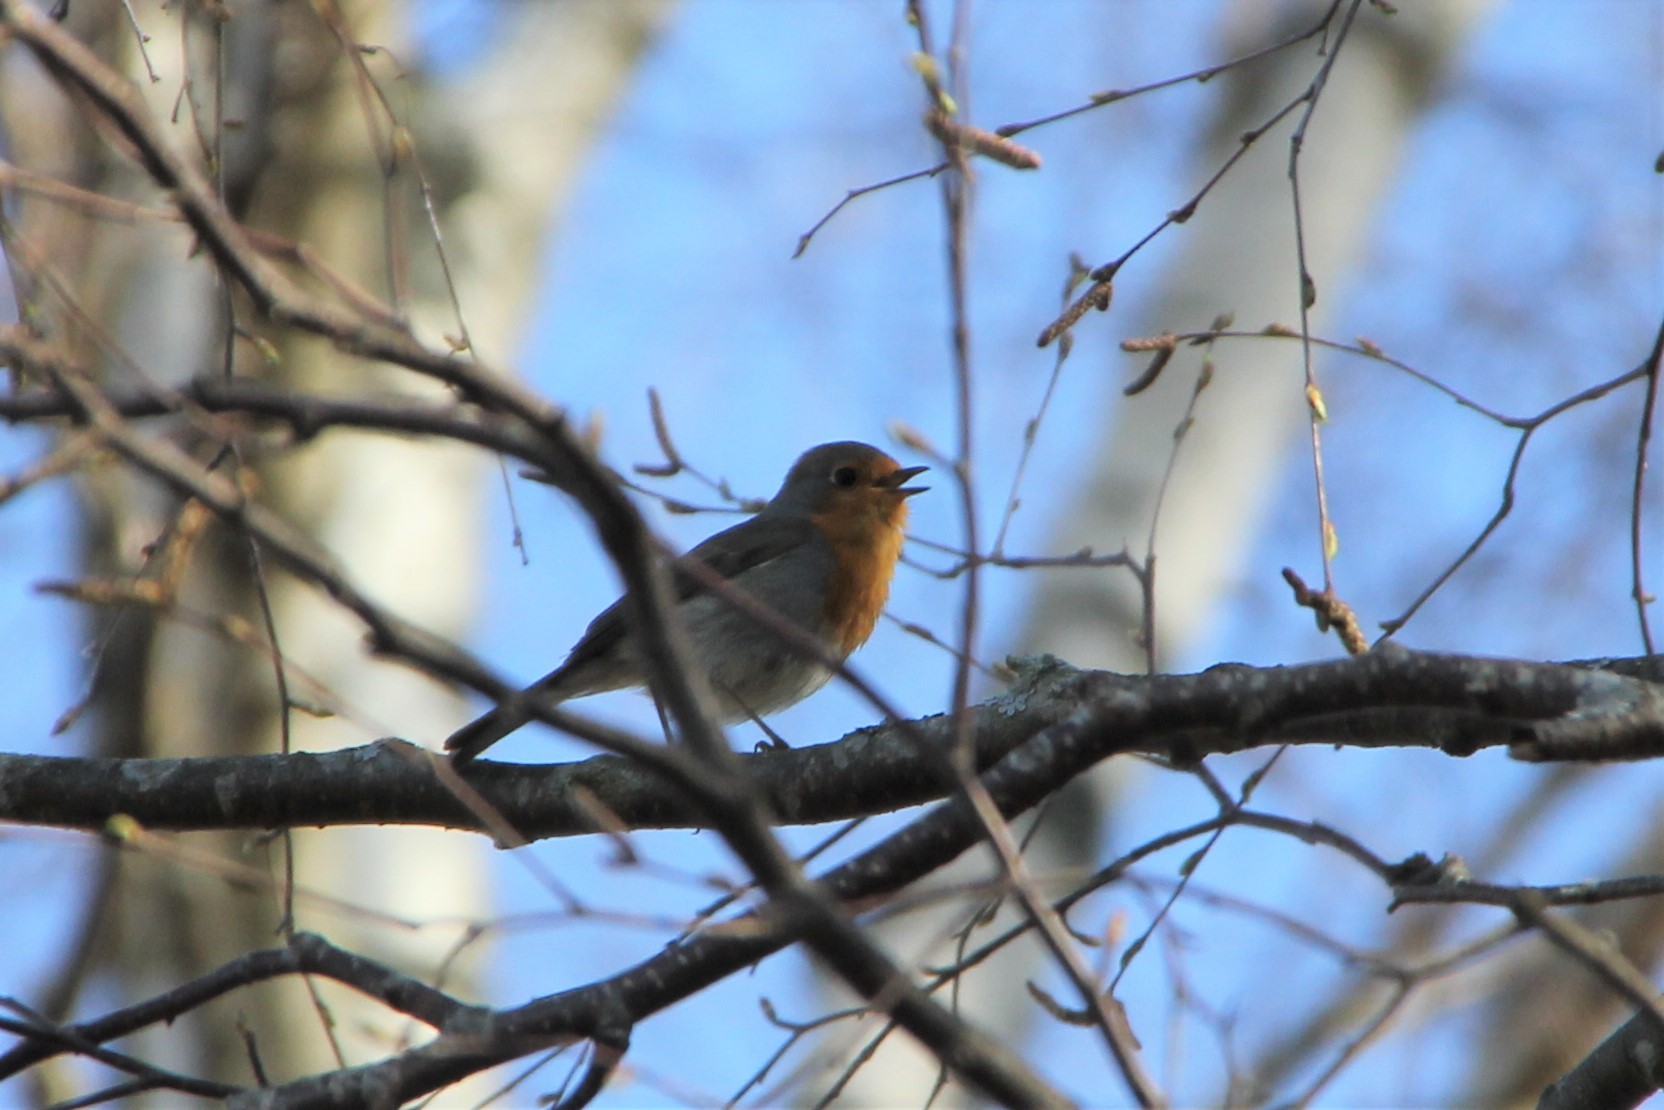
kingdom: Animalia
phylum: Chordata
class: Aves
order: Passeriformes
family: Muscicapidae
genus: Erithacus
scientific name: Erithacus rubecula
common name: European robin
